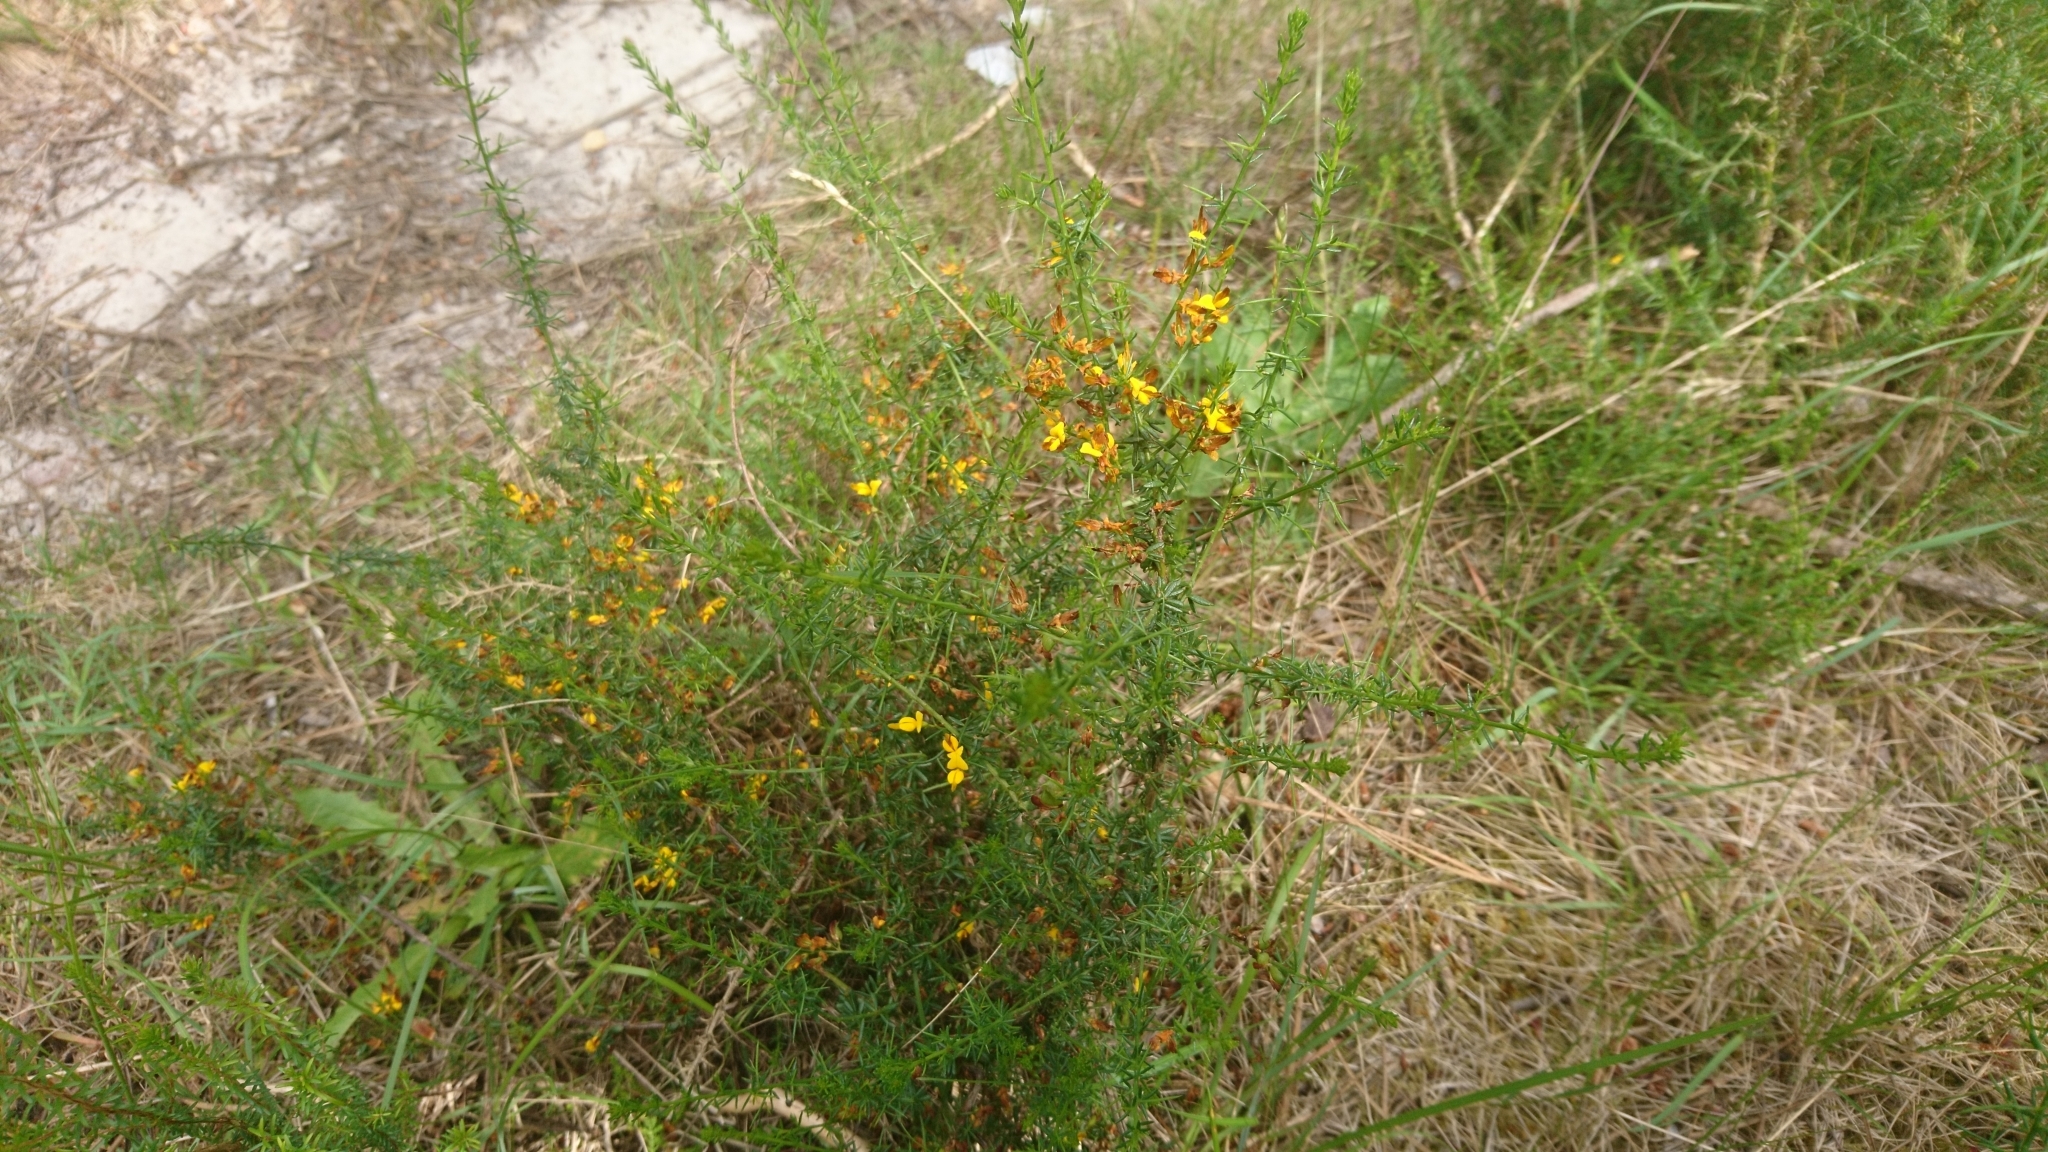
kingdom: Plantae
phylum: Tracheophyta
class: Magnoliopsida
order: Fabales
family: Fabaceae
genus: Genista
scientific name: Genista triacanthos
